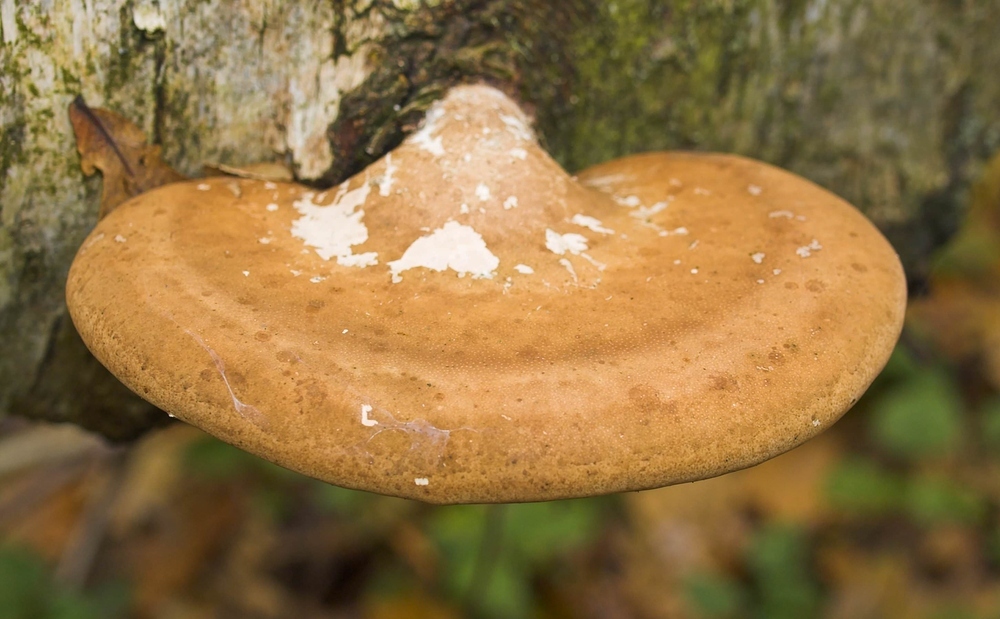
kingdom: Fungi
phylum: Basidiomycota
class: Agaricomycetes
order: Polyporales
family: Fomitopsidaceae
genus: Fomitopsis
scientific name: Fomitopsis betulina
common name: Birch polypore
